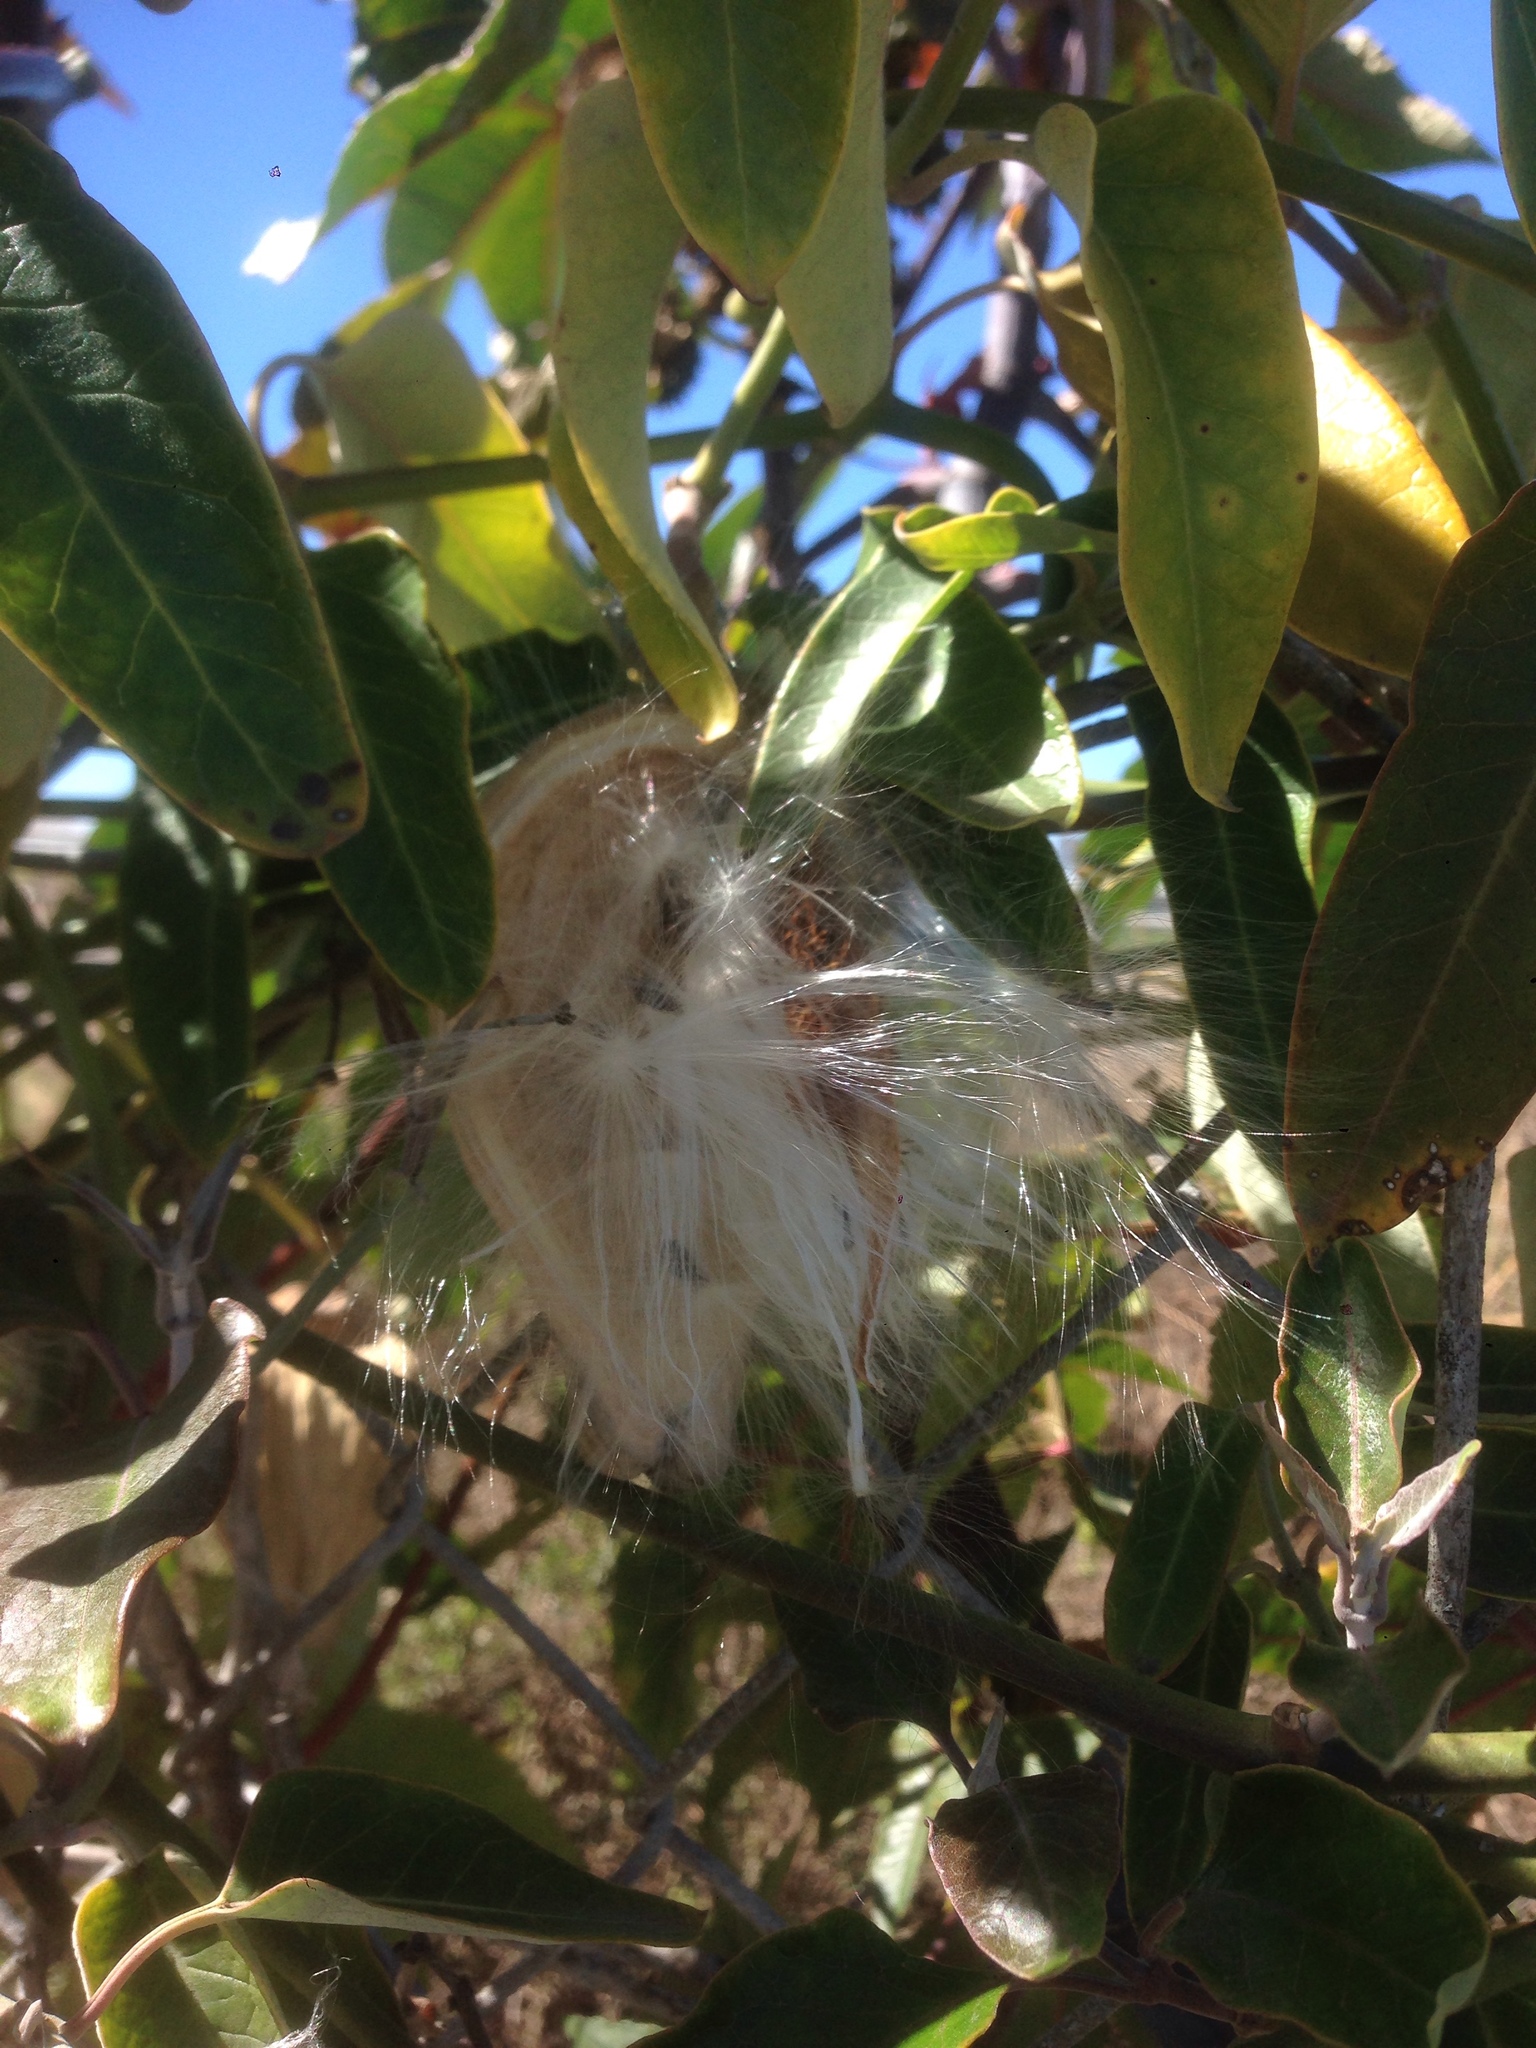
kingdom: Plantae
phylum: Tracheophyta
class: Magnoliopsida
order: Gentianales
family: Apocynaceae
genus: Araujia
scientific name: Araujia sericifera
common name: White bladderflower
